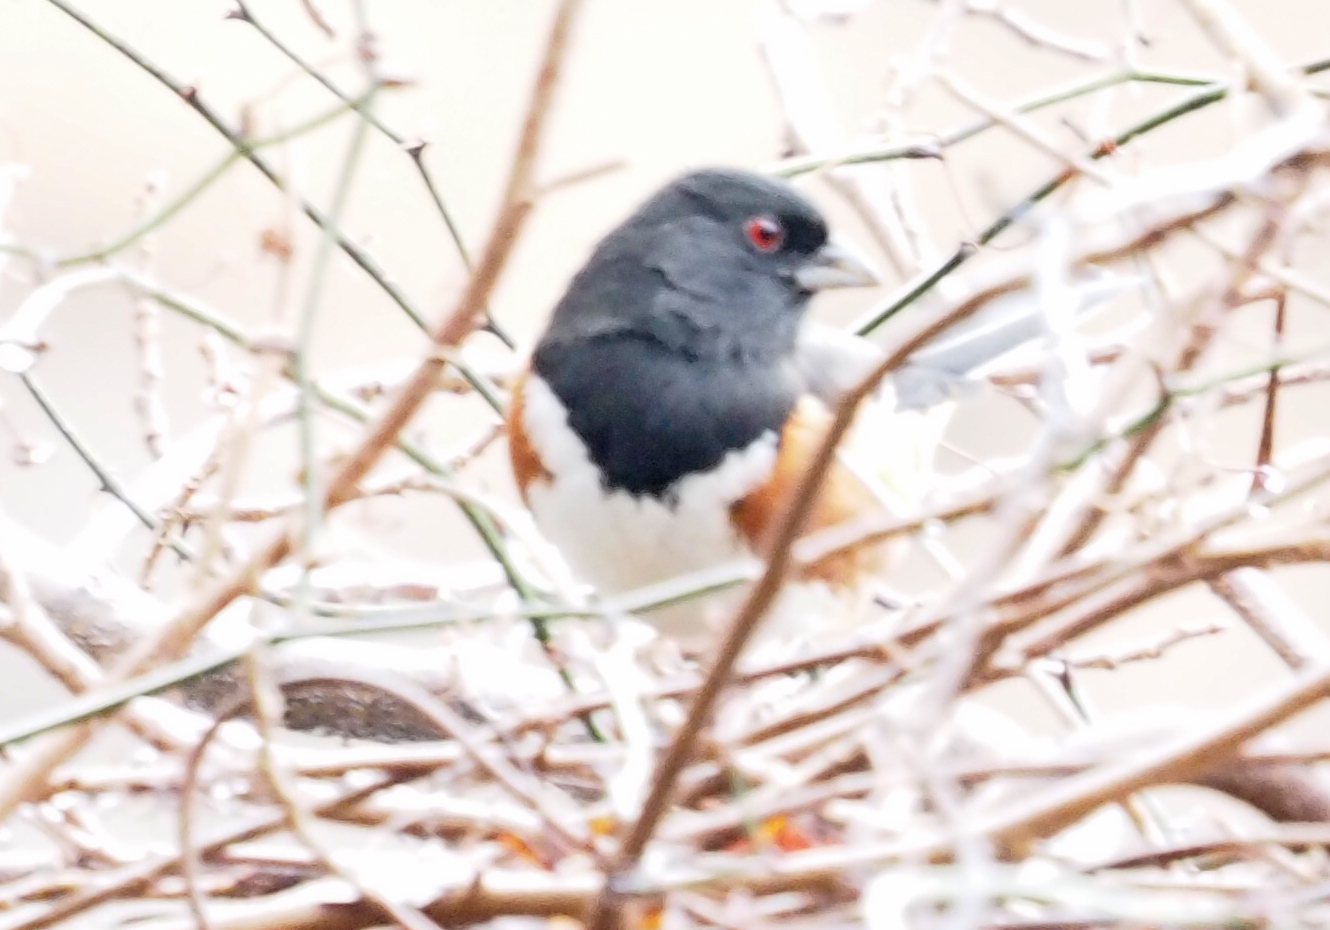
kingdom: Animalia
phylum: Chordata
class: Aves
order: Passeriformes
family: Passerellidae
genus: Pipilo
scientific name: Pipilo erythrophthalmus
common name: Eastern towhee
